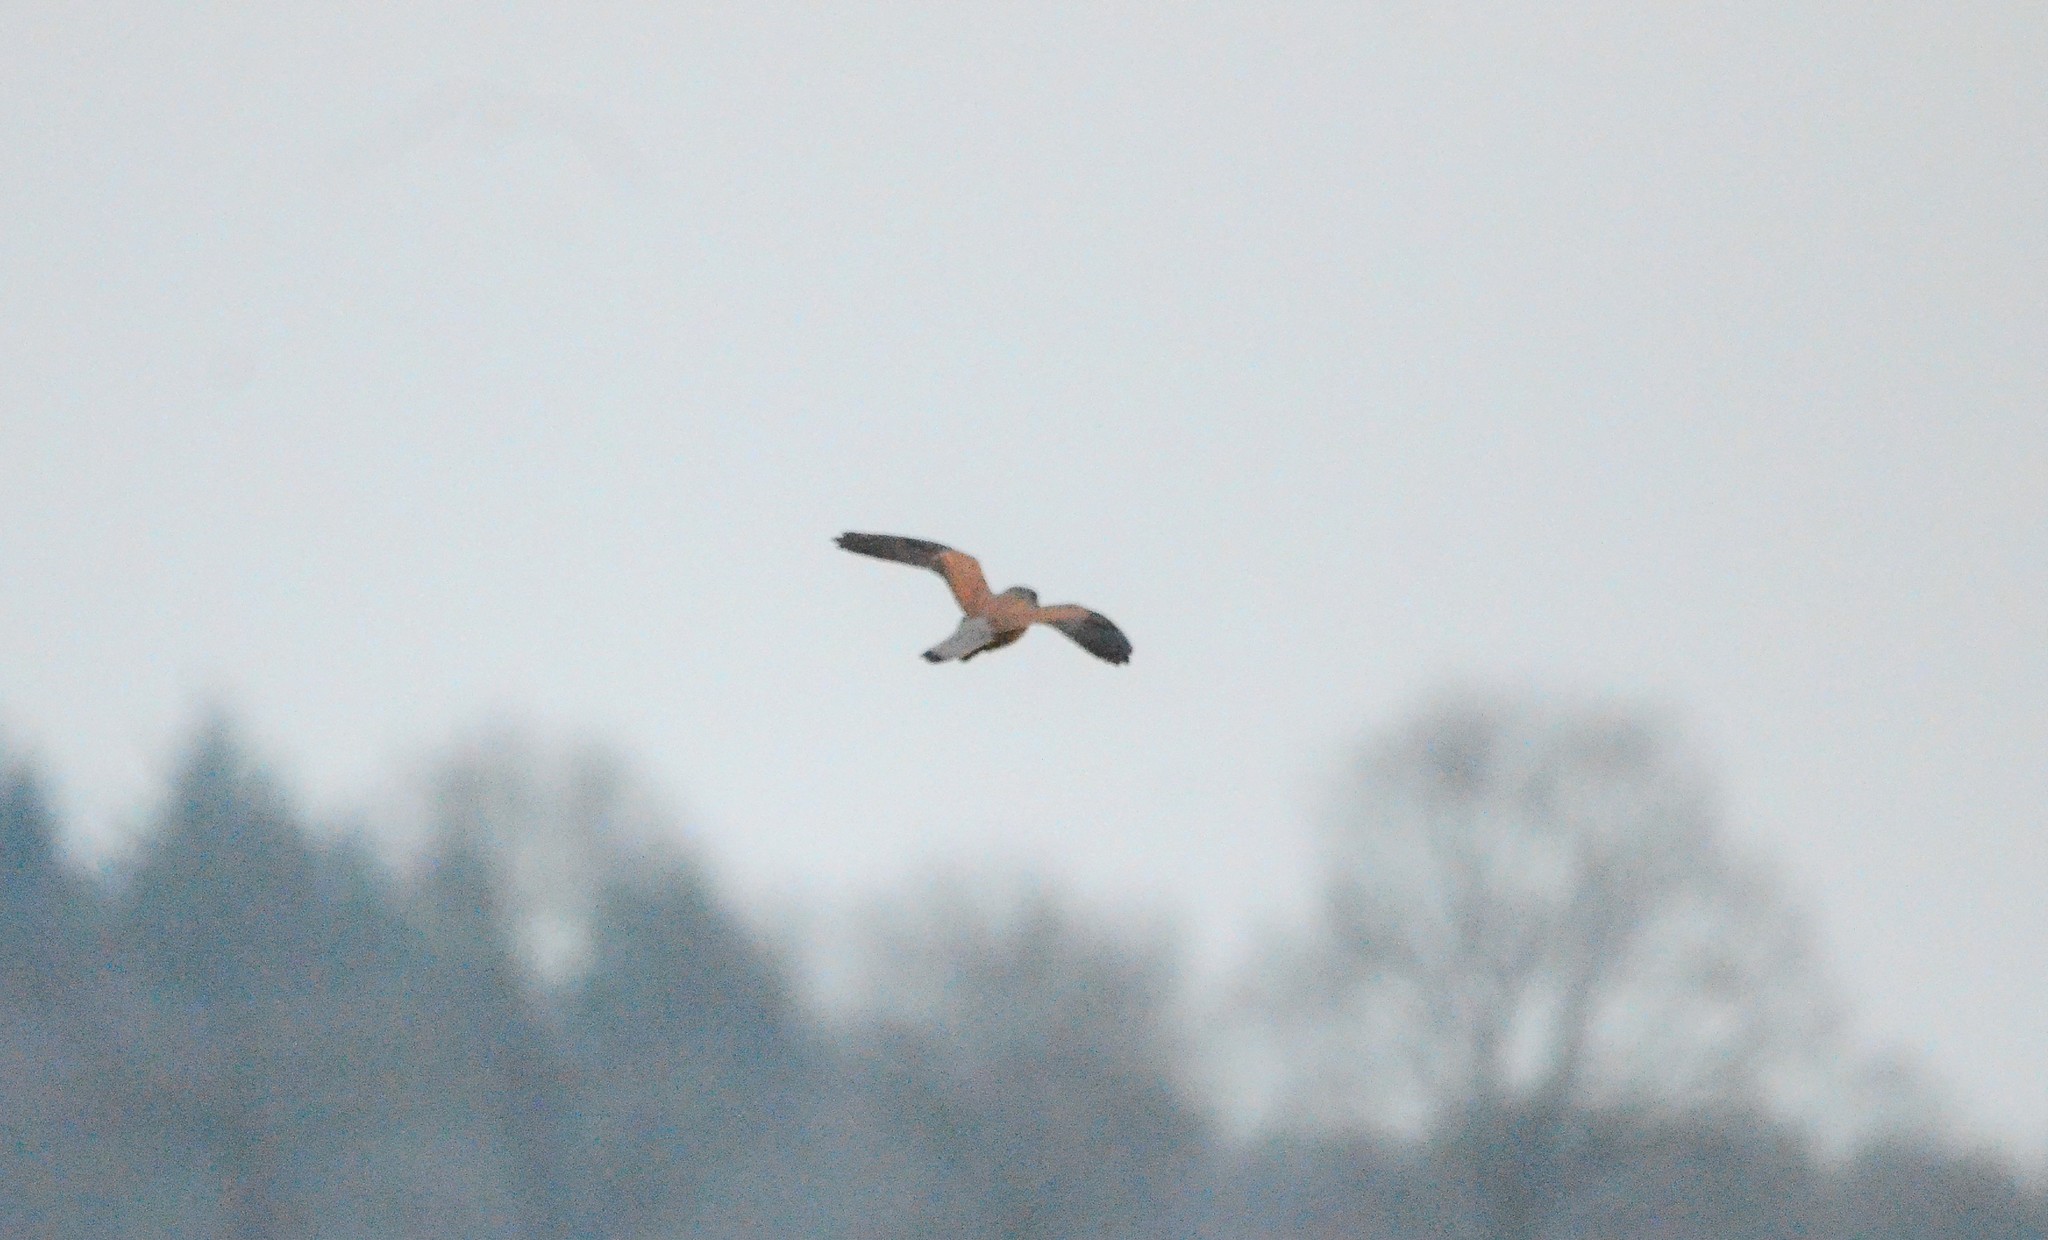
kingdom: Animalia
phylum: Chordata
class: Aves
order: Falconiformes
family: Falconidae
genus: Falco
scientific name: Falco tinnunculus
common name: Common kestrel
